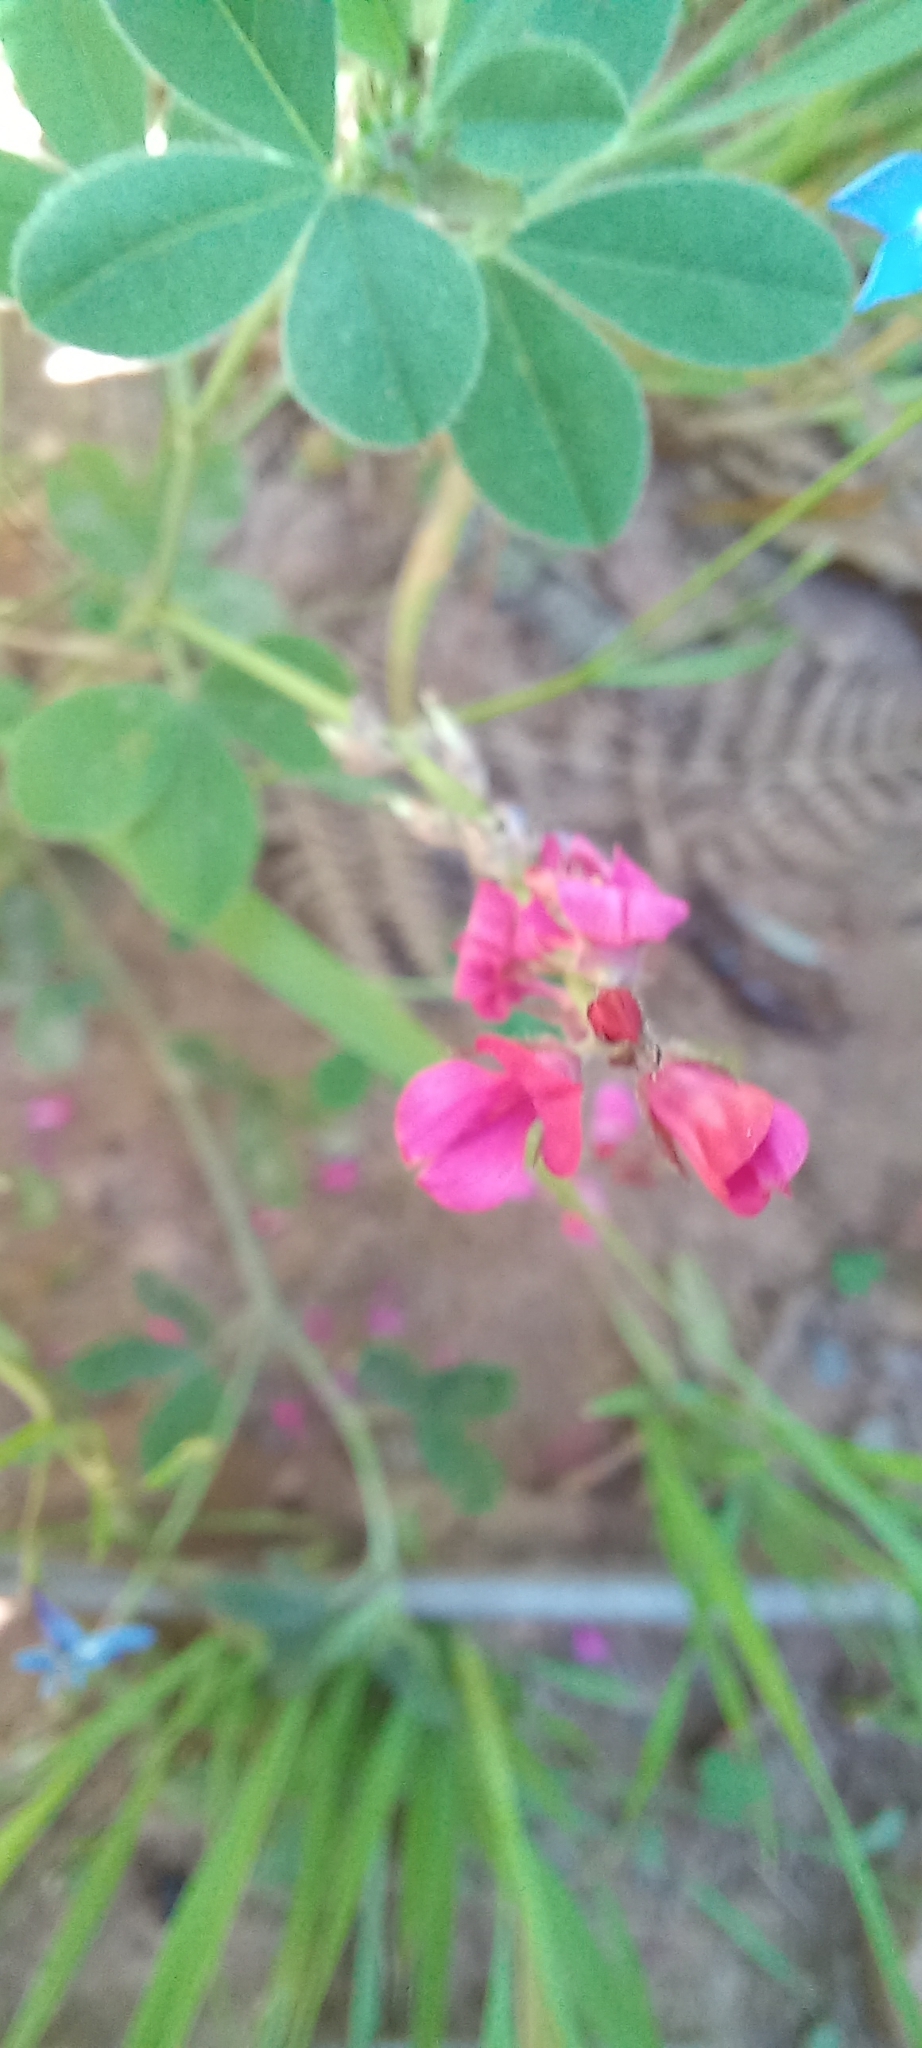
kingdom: Plantae
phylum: Tracheophyta
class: Magnoliopsida
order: Fabales
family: Fabaceae
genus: Indigofera
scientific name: Indigofera incana
